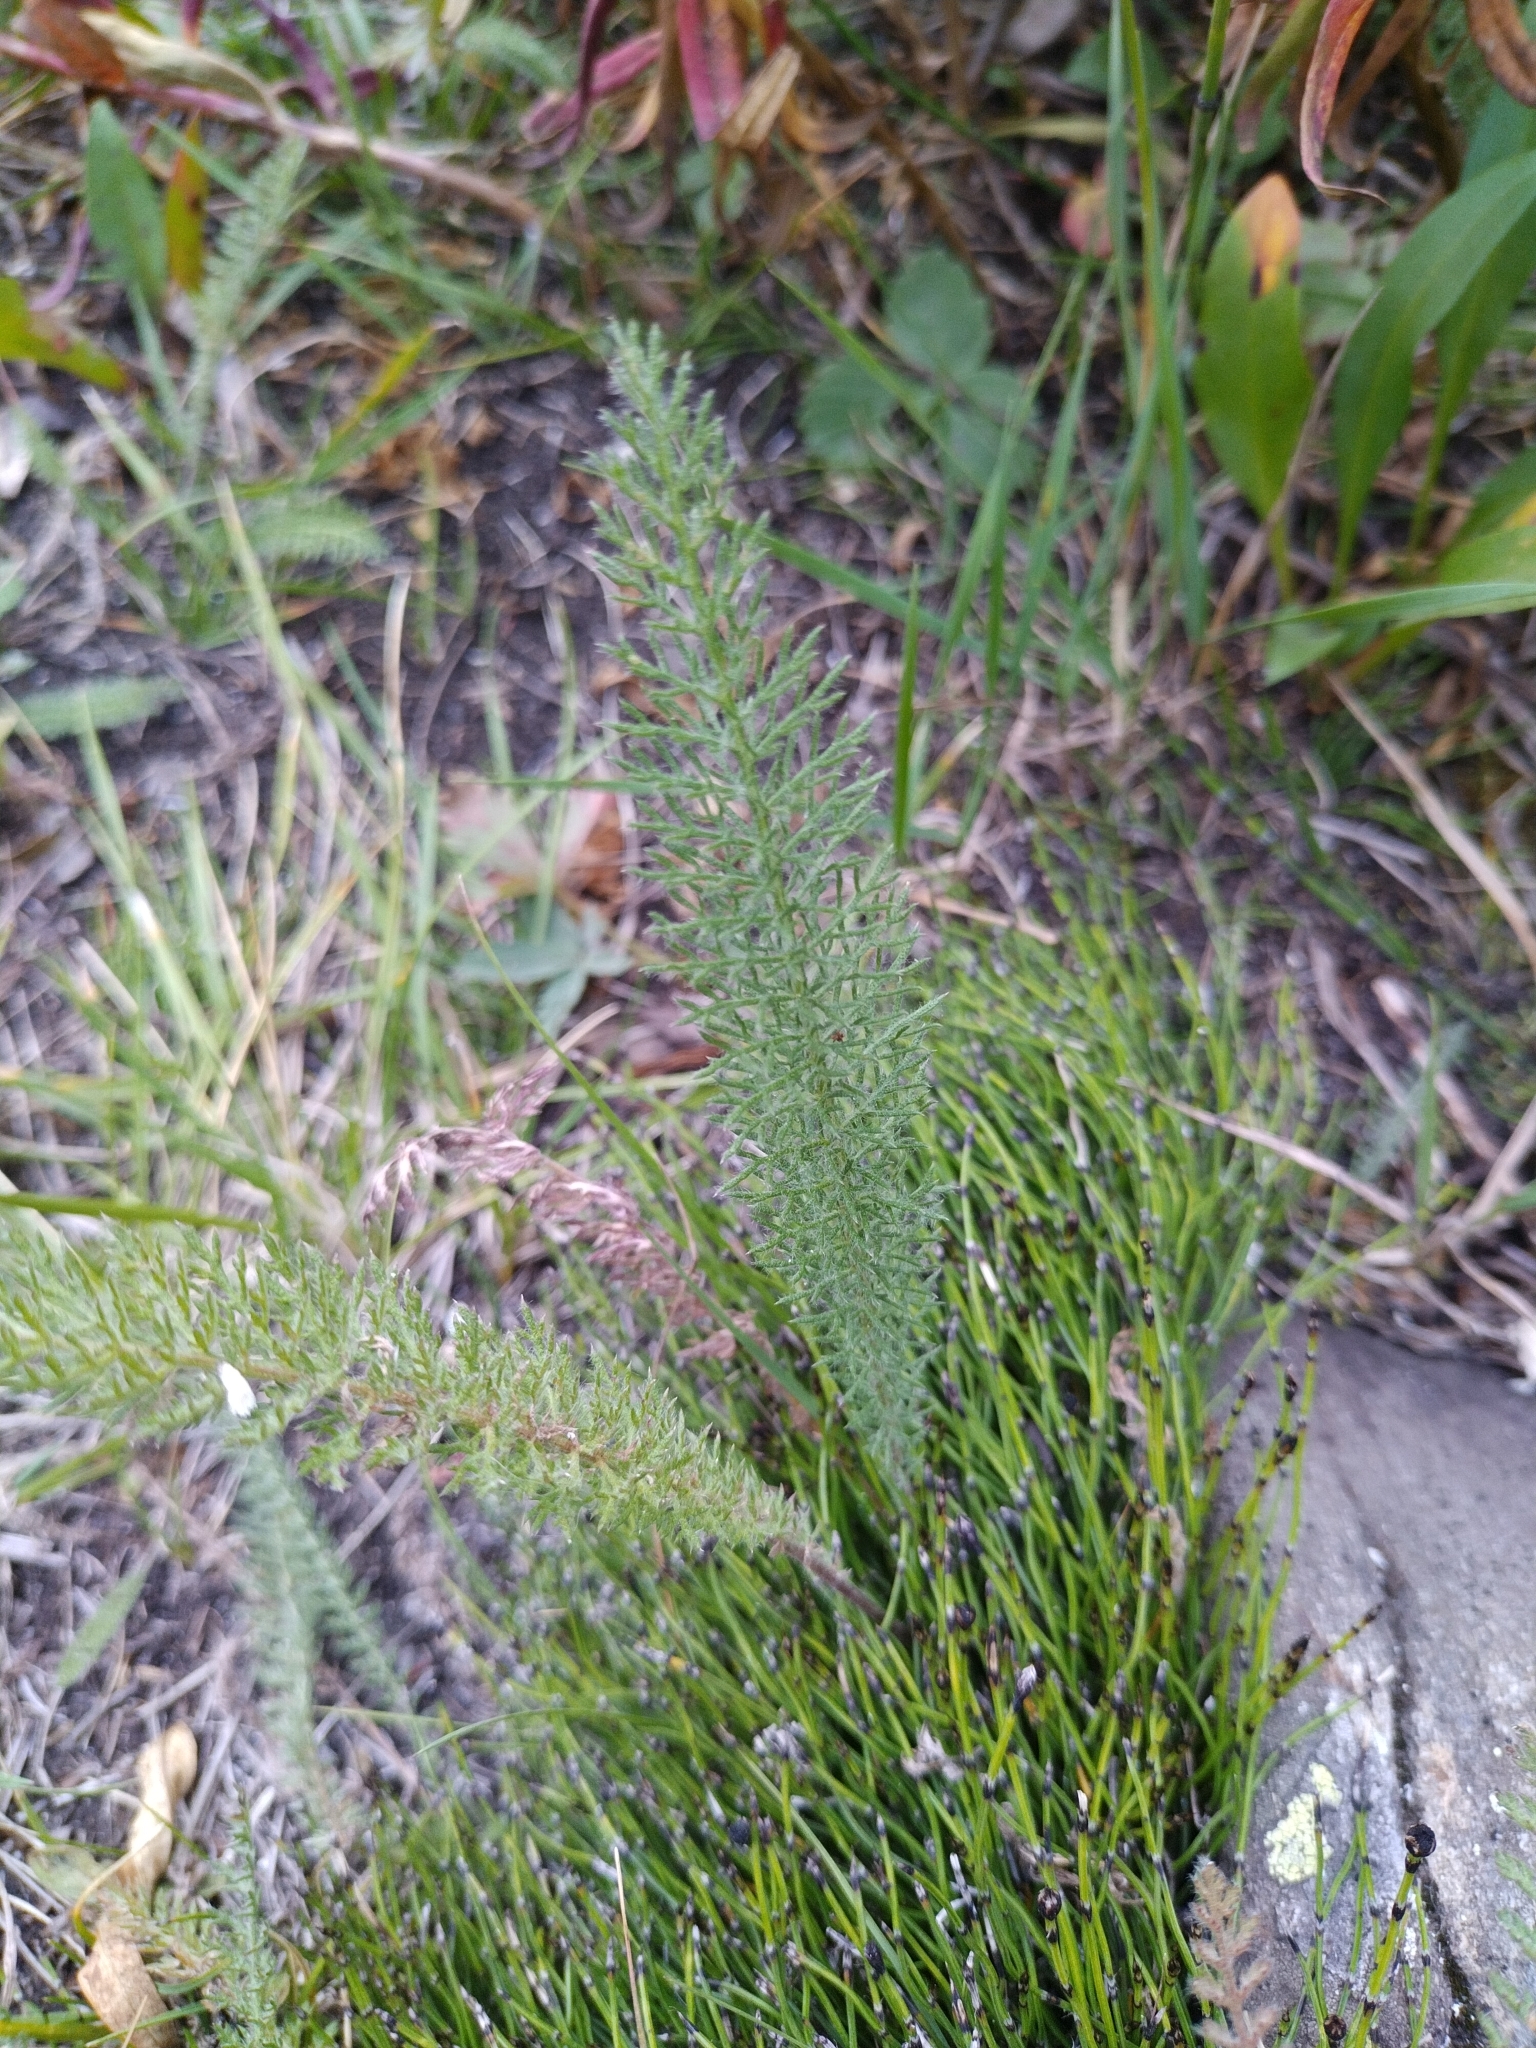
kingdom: Plantae
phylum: Tracheophyta
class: Magnoliopsida
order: Asterales
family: Asteraceae
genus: Achillea
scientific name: Achillea millefolium
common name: Yarrow
